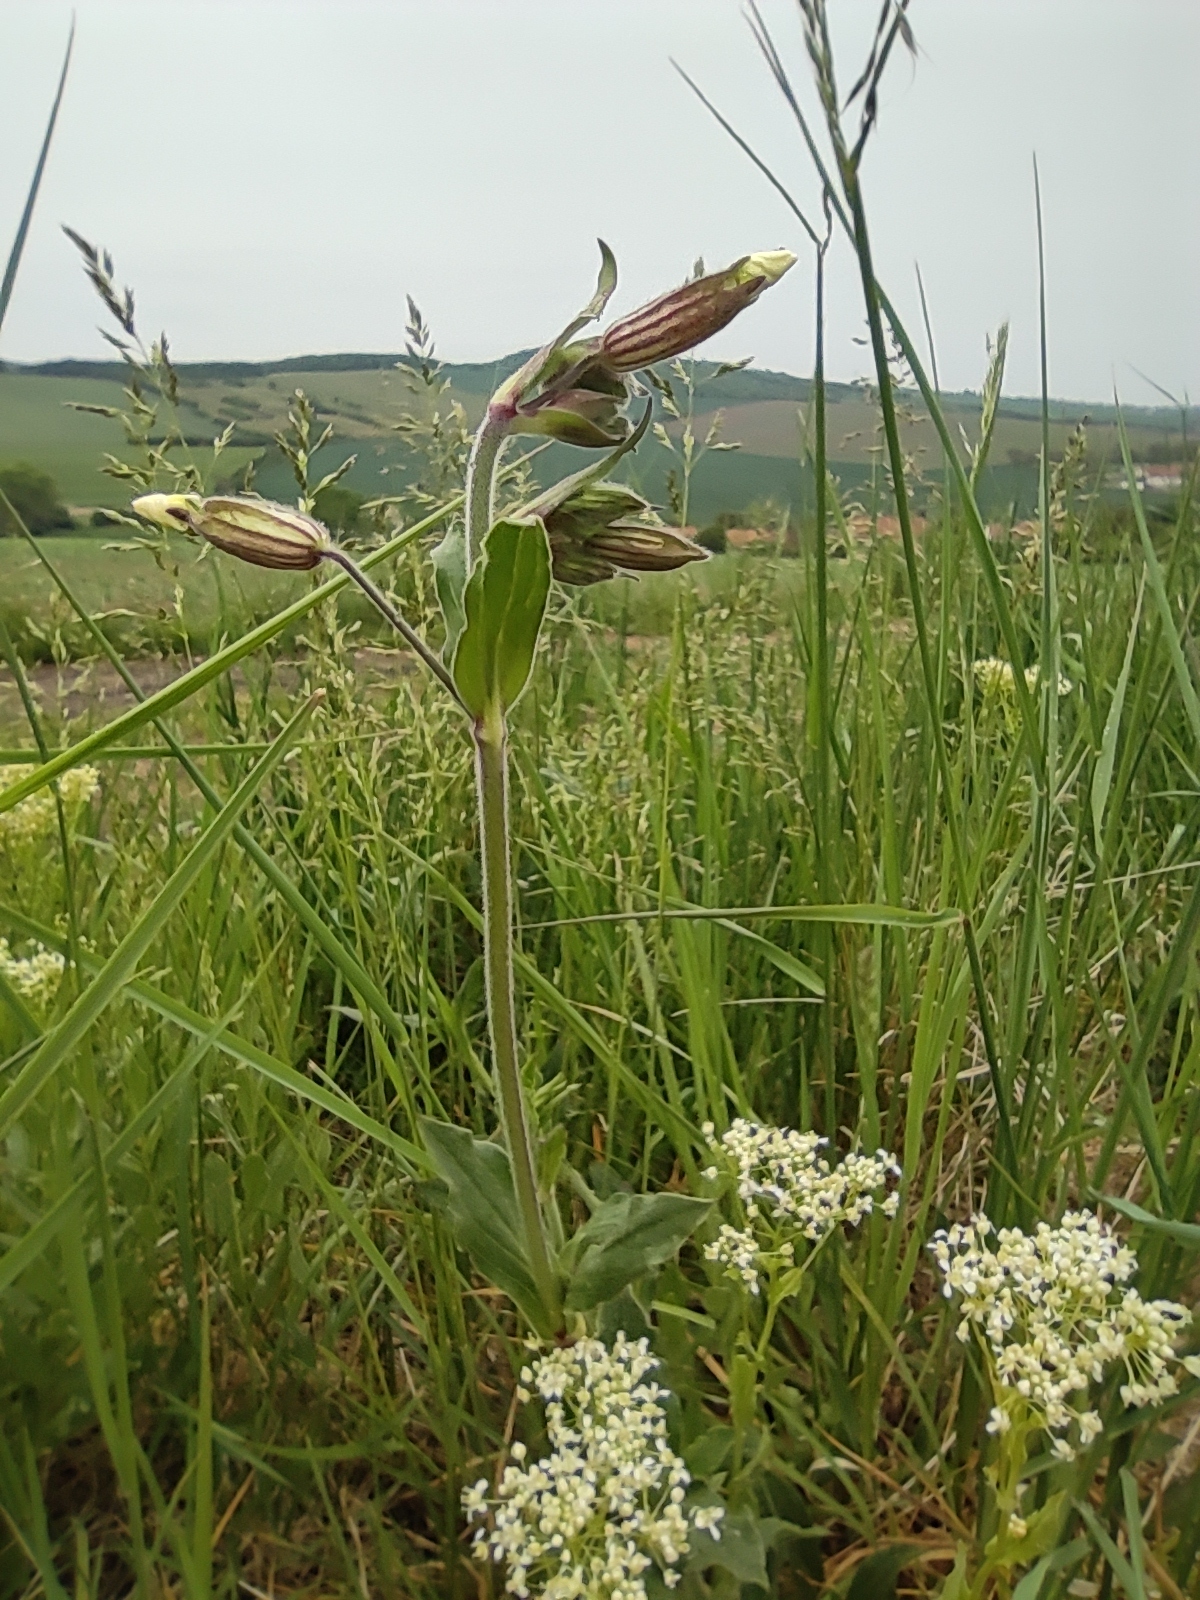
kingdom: Plantae
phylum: Tracheophyta
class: Magnoliopsida
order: Caryophyllales
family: Caryophyllaceae
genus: Silene
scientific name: Silene latifolia
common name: White campion
